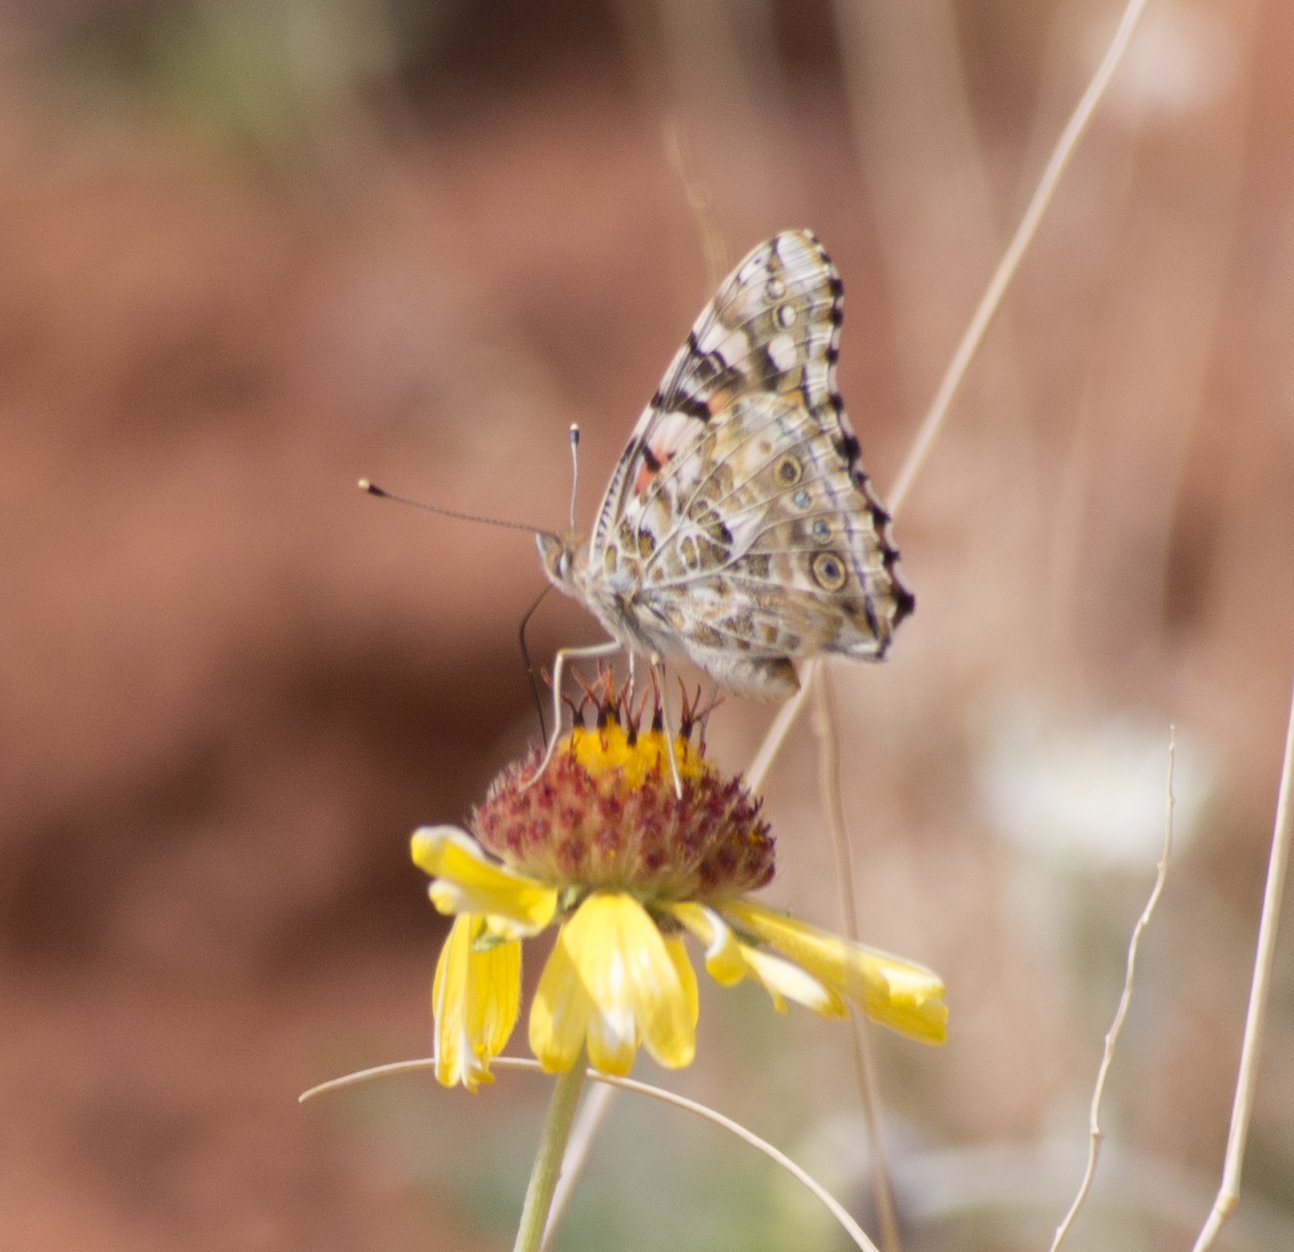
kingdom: Animalia
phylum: Arthropoda
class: Insecta
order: Lepidoptera
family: Nymphalidae
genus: Vanessa
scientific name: Vanessa cardui
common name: Painted lady
